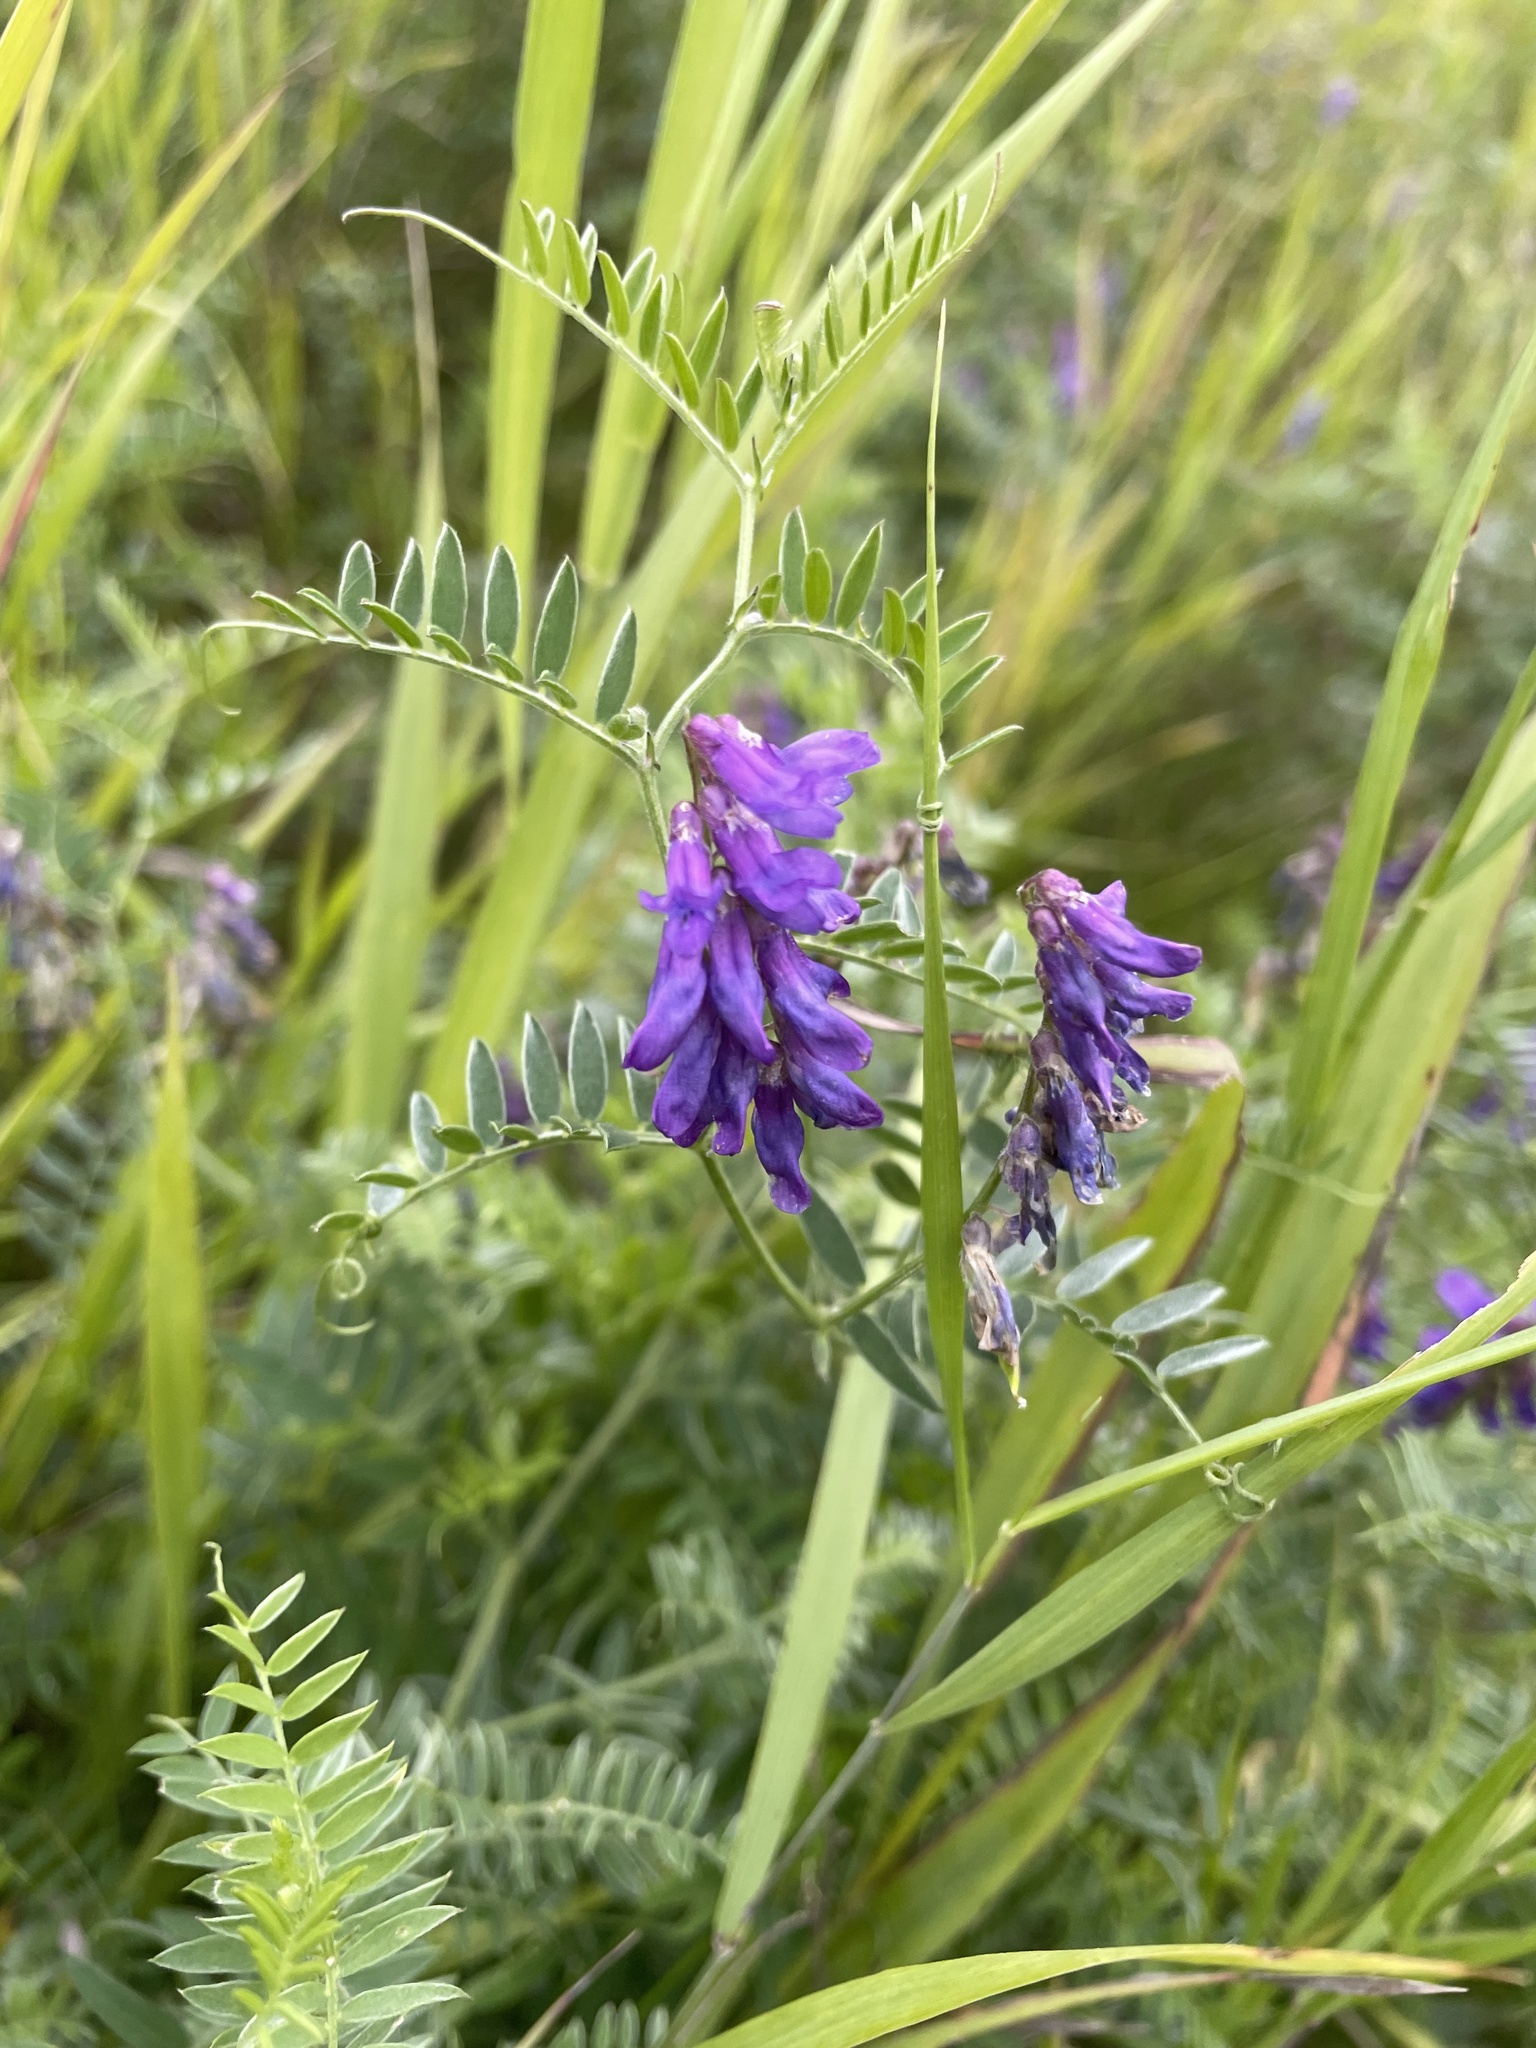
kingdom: Plantae
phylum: Tracheophyta
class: Magnoliopsida
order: Fabales
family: Fabaceae
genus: Vicia
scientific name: Vicia cracca
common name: Bird vetch
